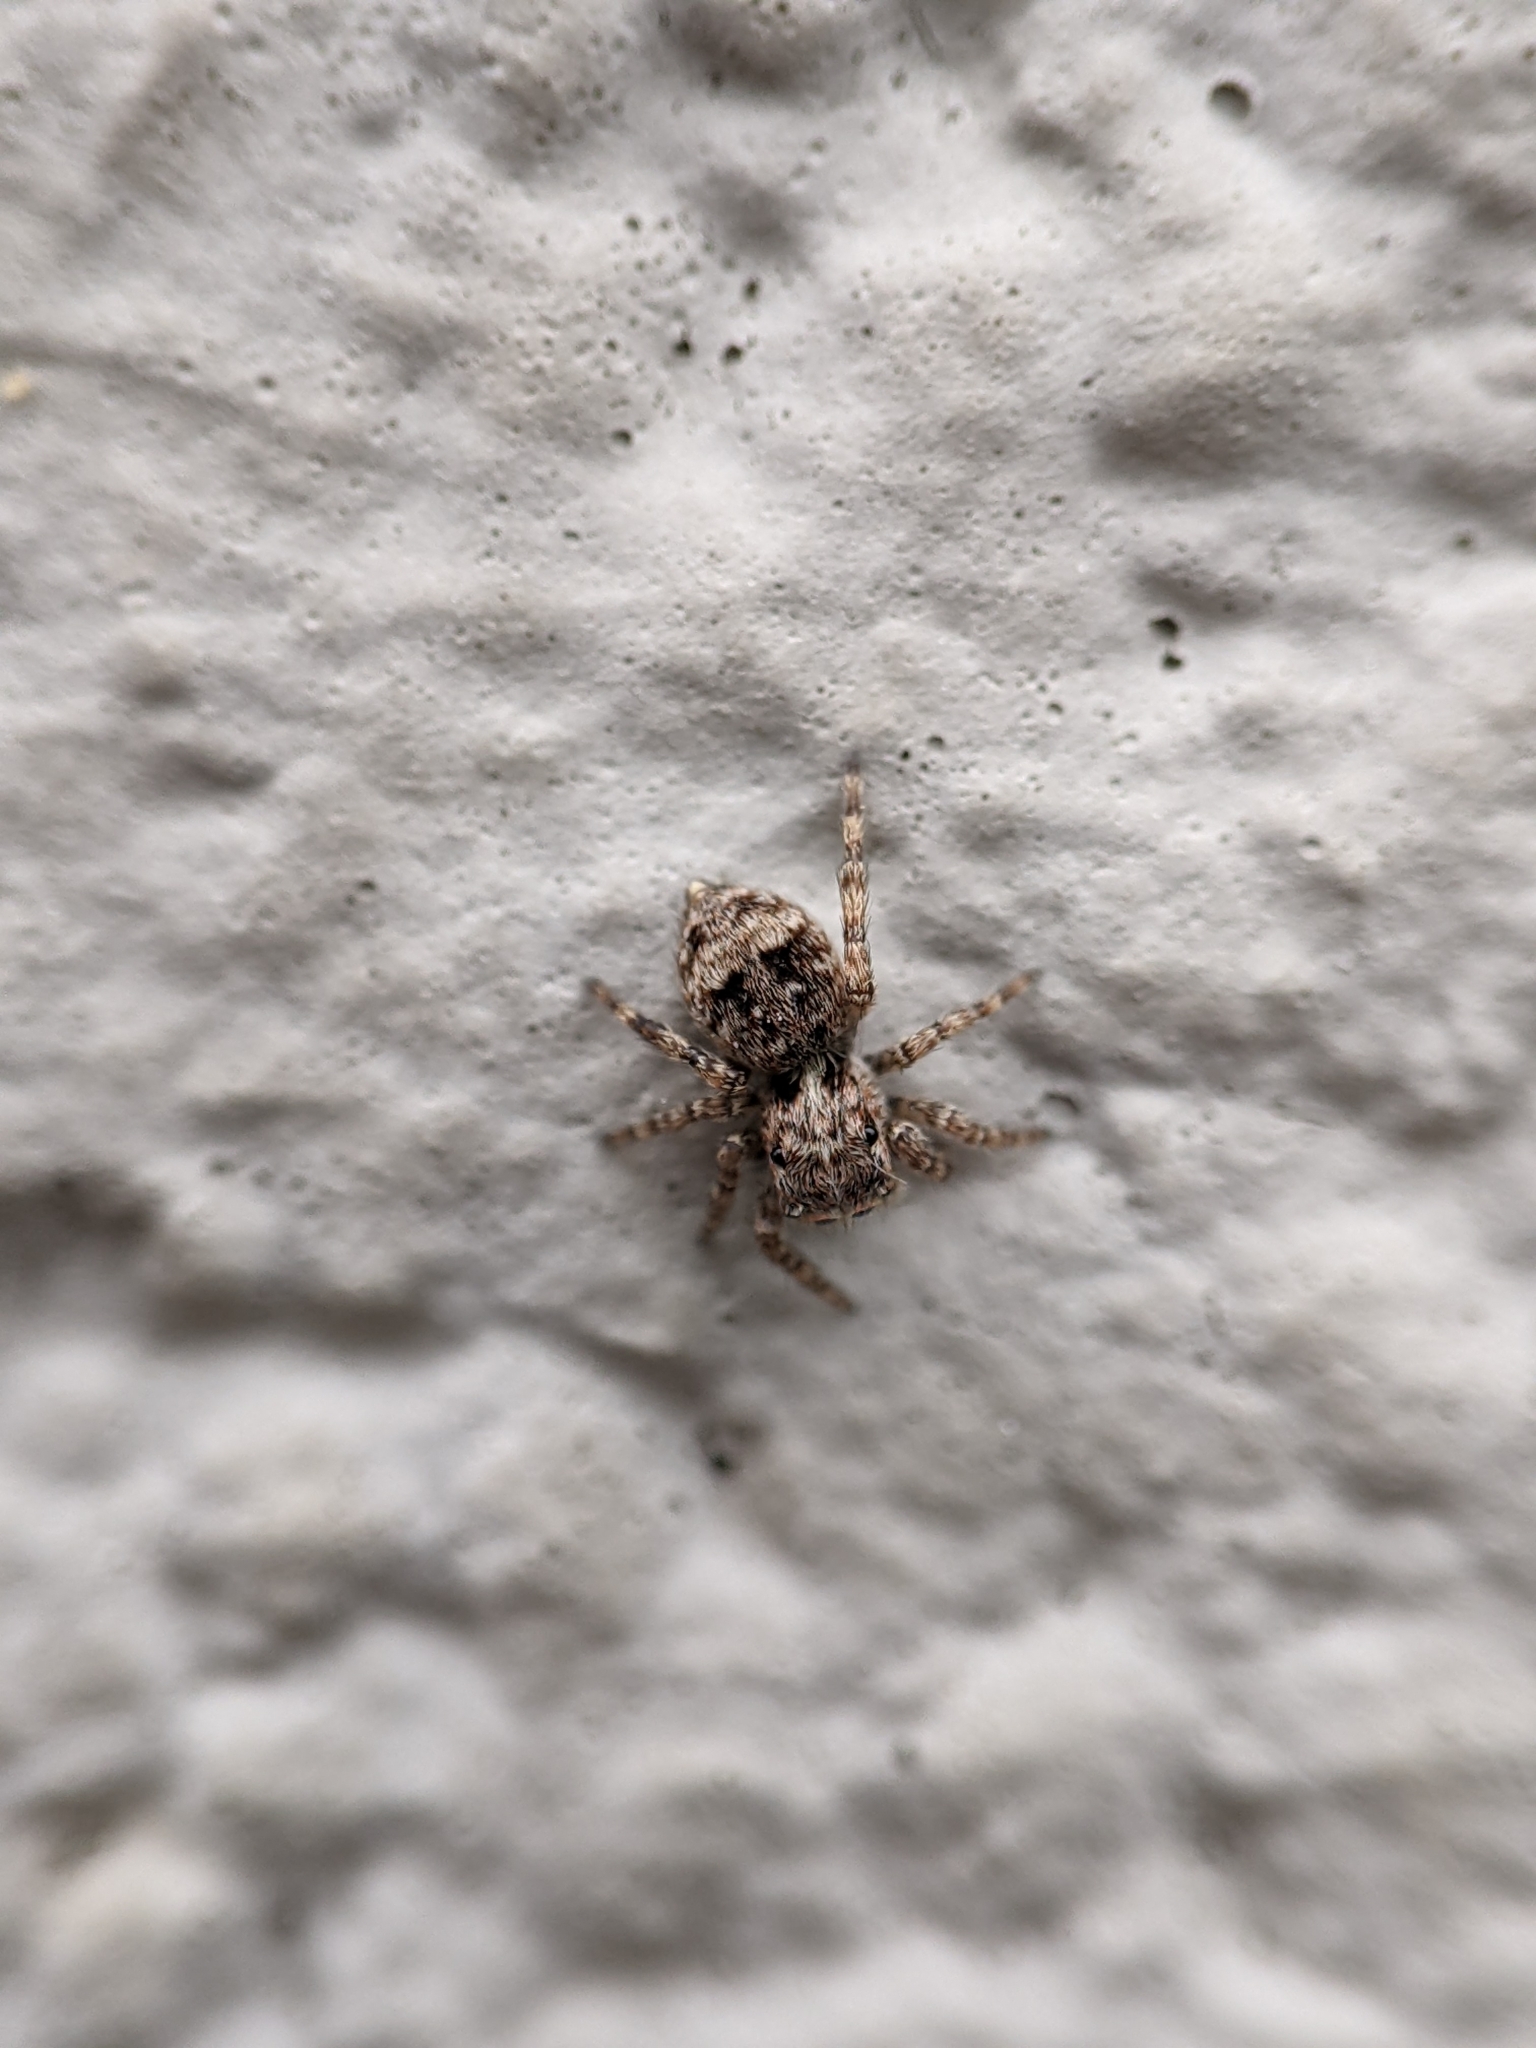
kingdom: Animalia
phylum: Arthropoda
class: Arachnida
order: Araneae
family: Salticidae
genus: Attulus
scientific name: Attulus fasciger
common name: Asiatic wall jumping spider
